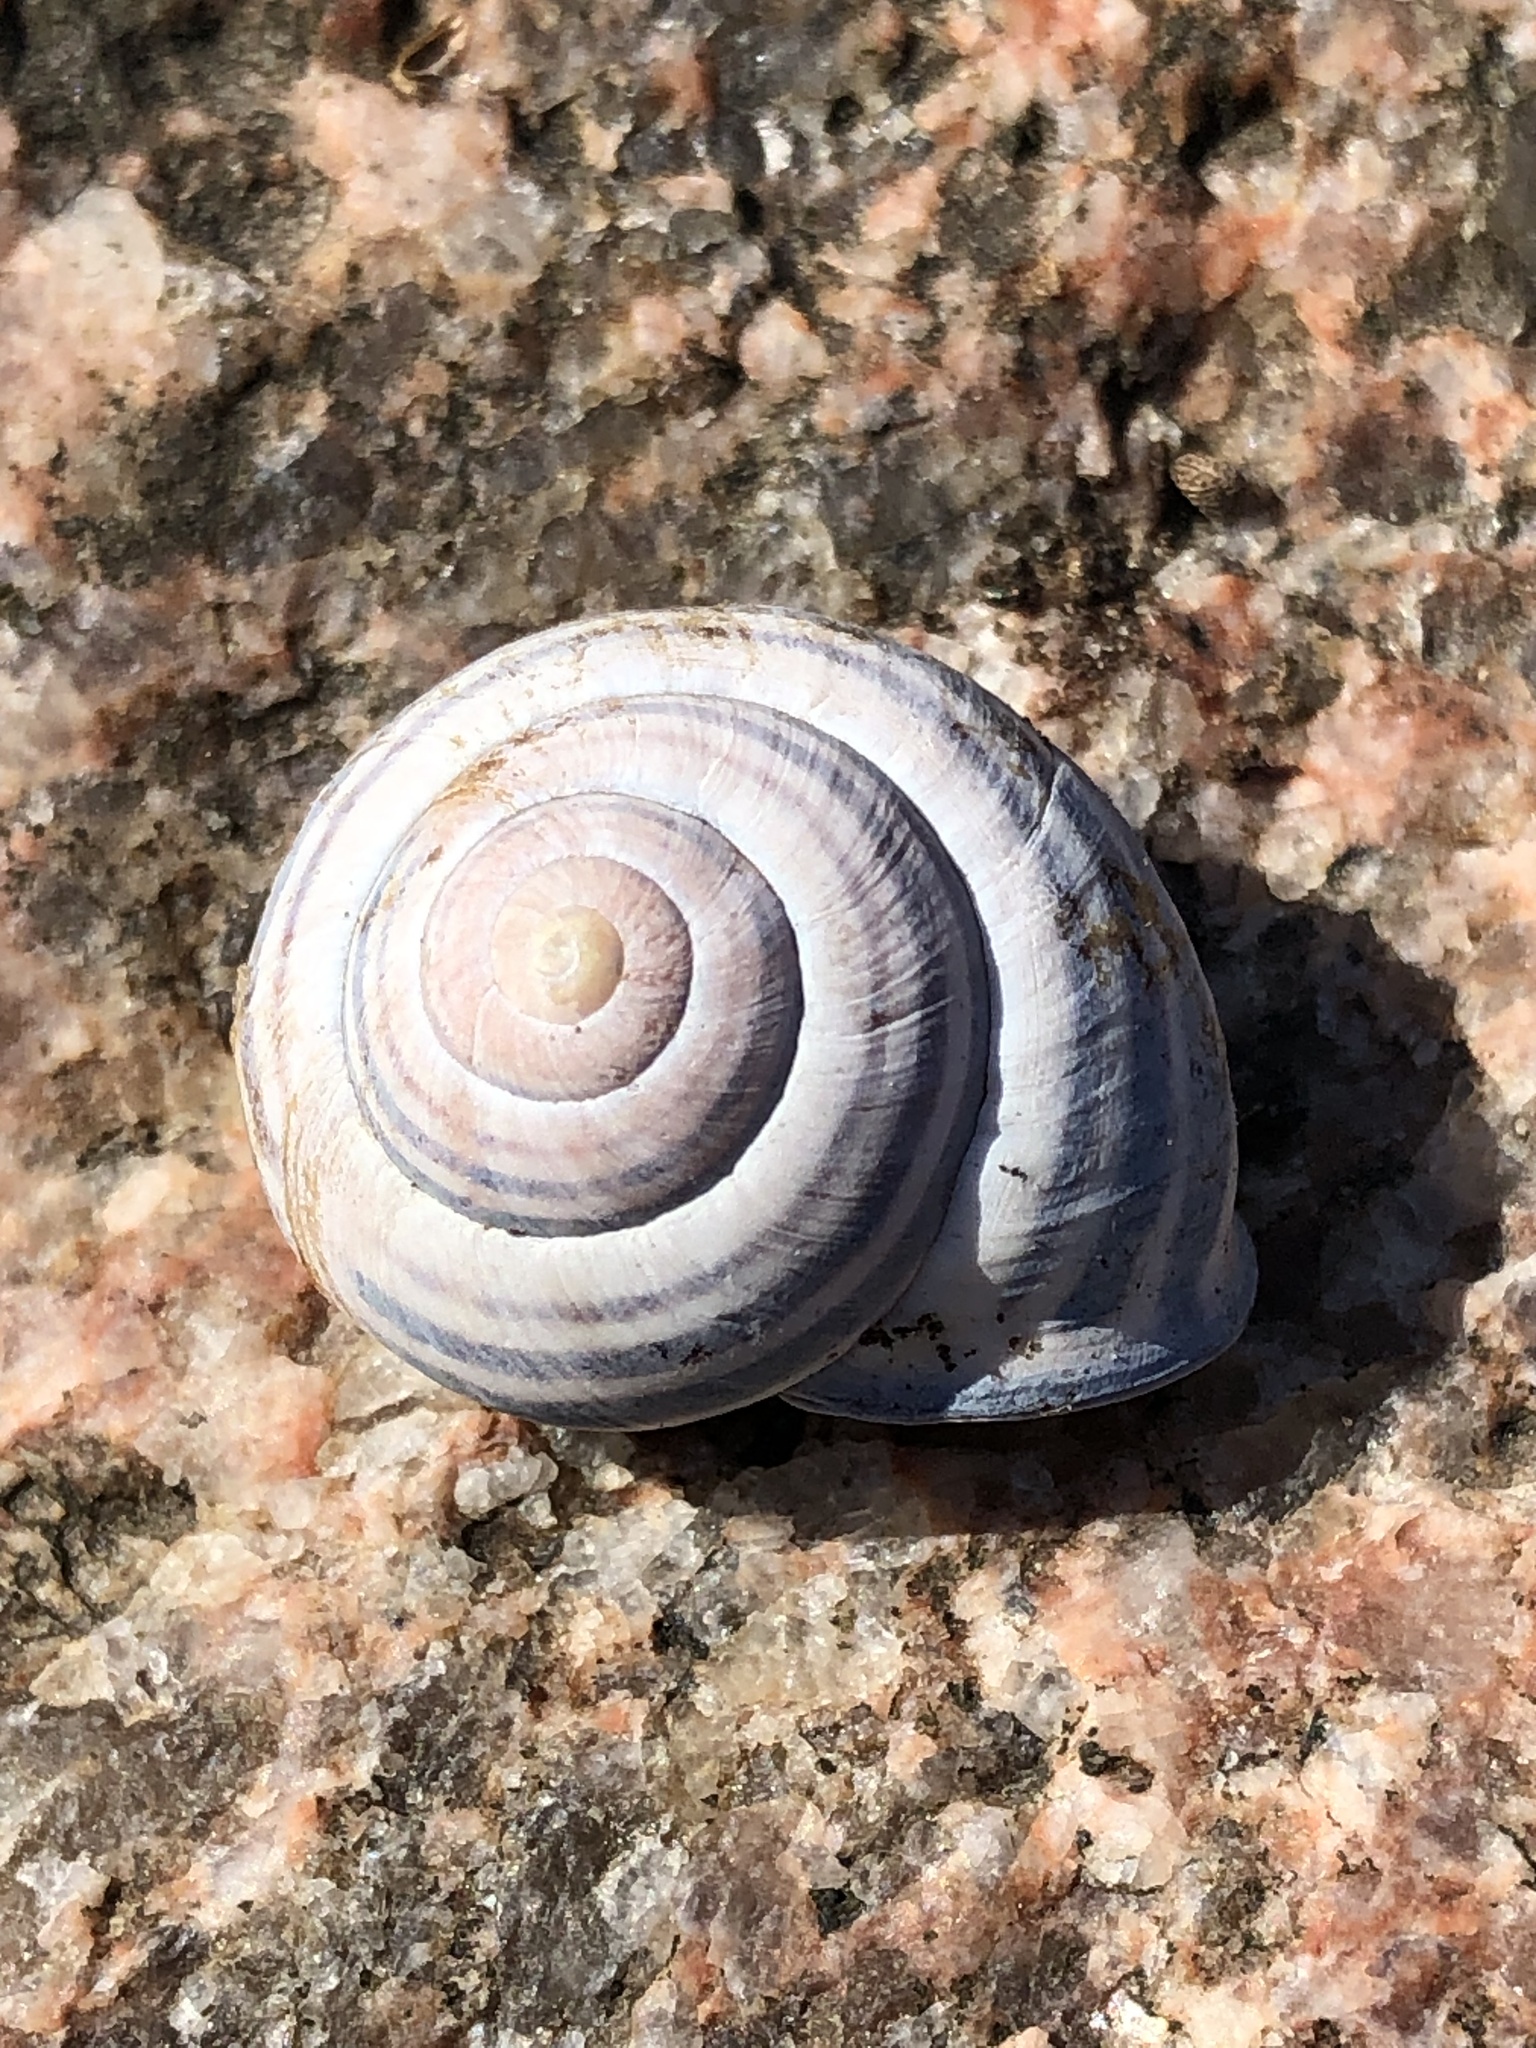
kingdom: Animalia
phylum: Mollusca
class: Gastropoda
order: Stylommatophora
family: Helicidae
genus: Cepaea
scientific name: Cepaea nemoralis
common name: Grovesnail
